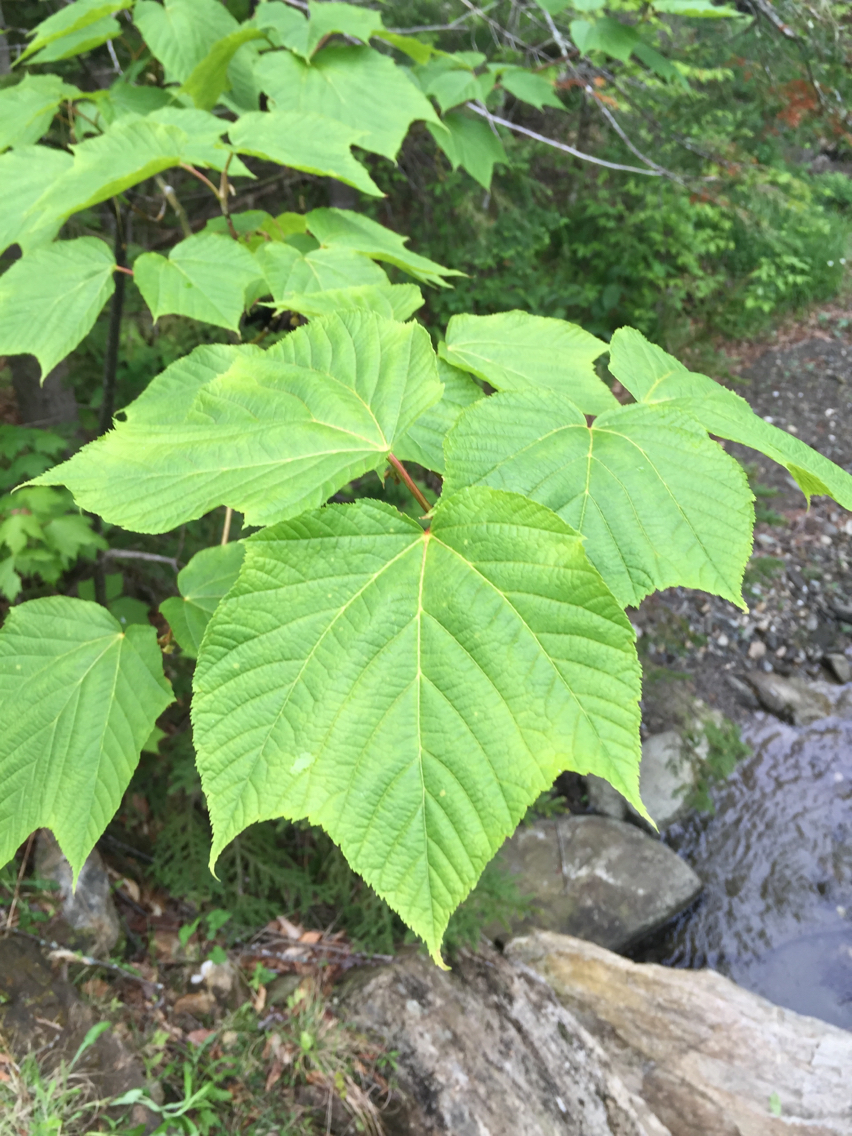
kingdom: Plantae
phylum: Tracheophyta
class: Magnoliopsida
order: Sapindales
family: Sapindaceae
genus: Acer
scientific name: Acer pensylvanicum
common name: Moosewood
